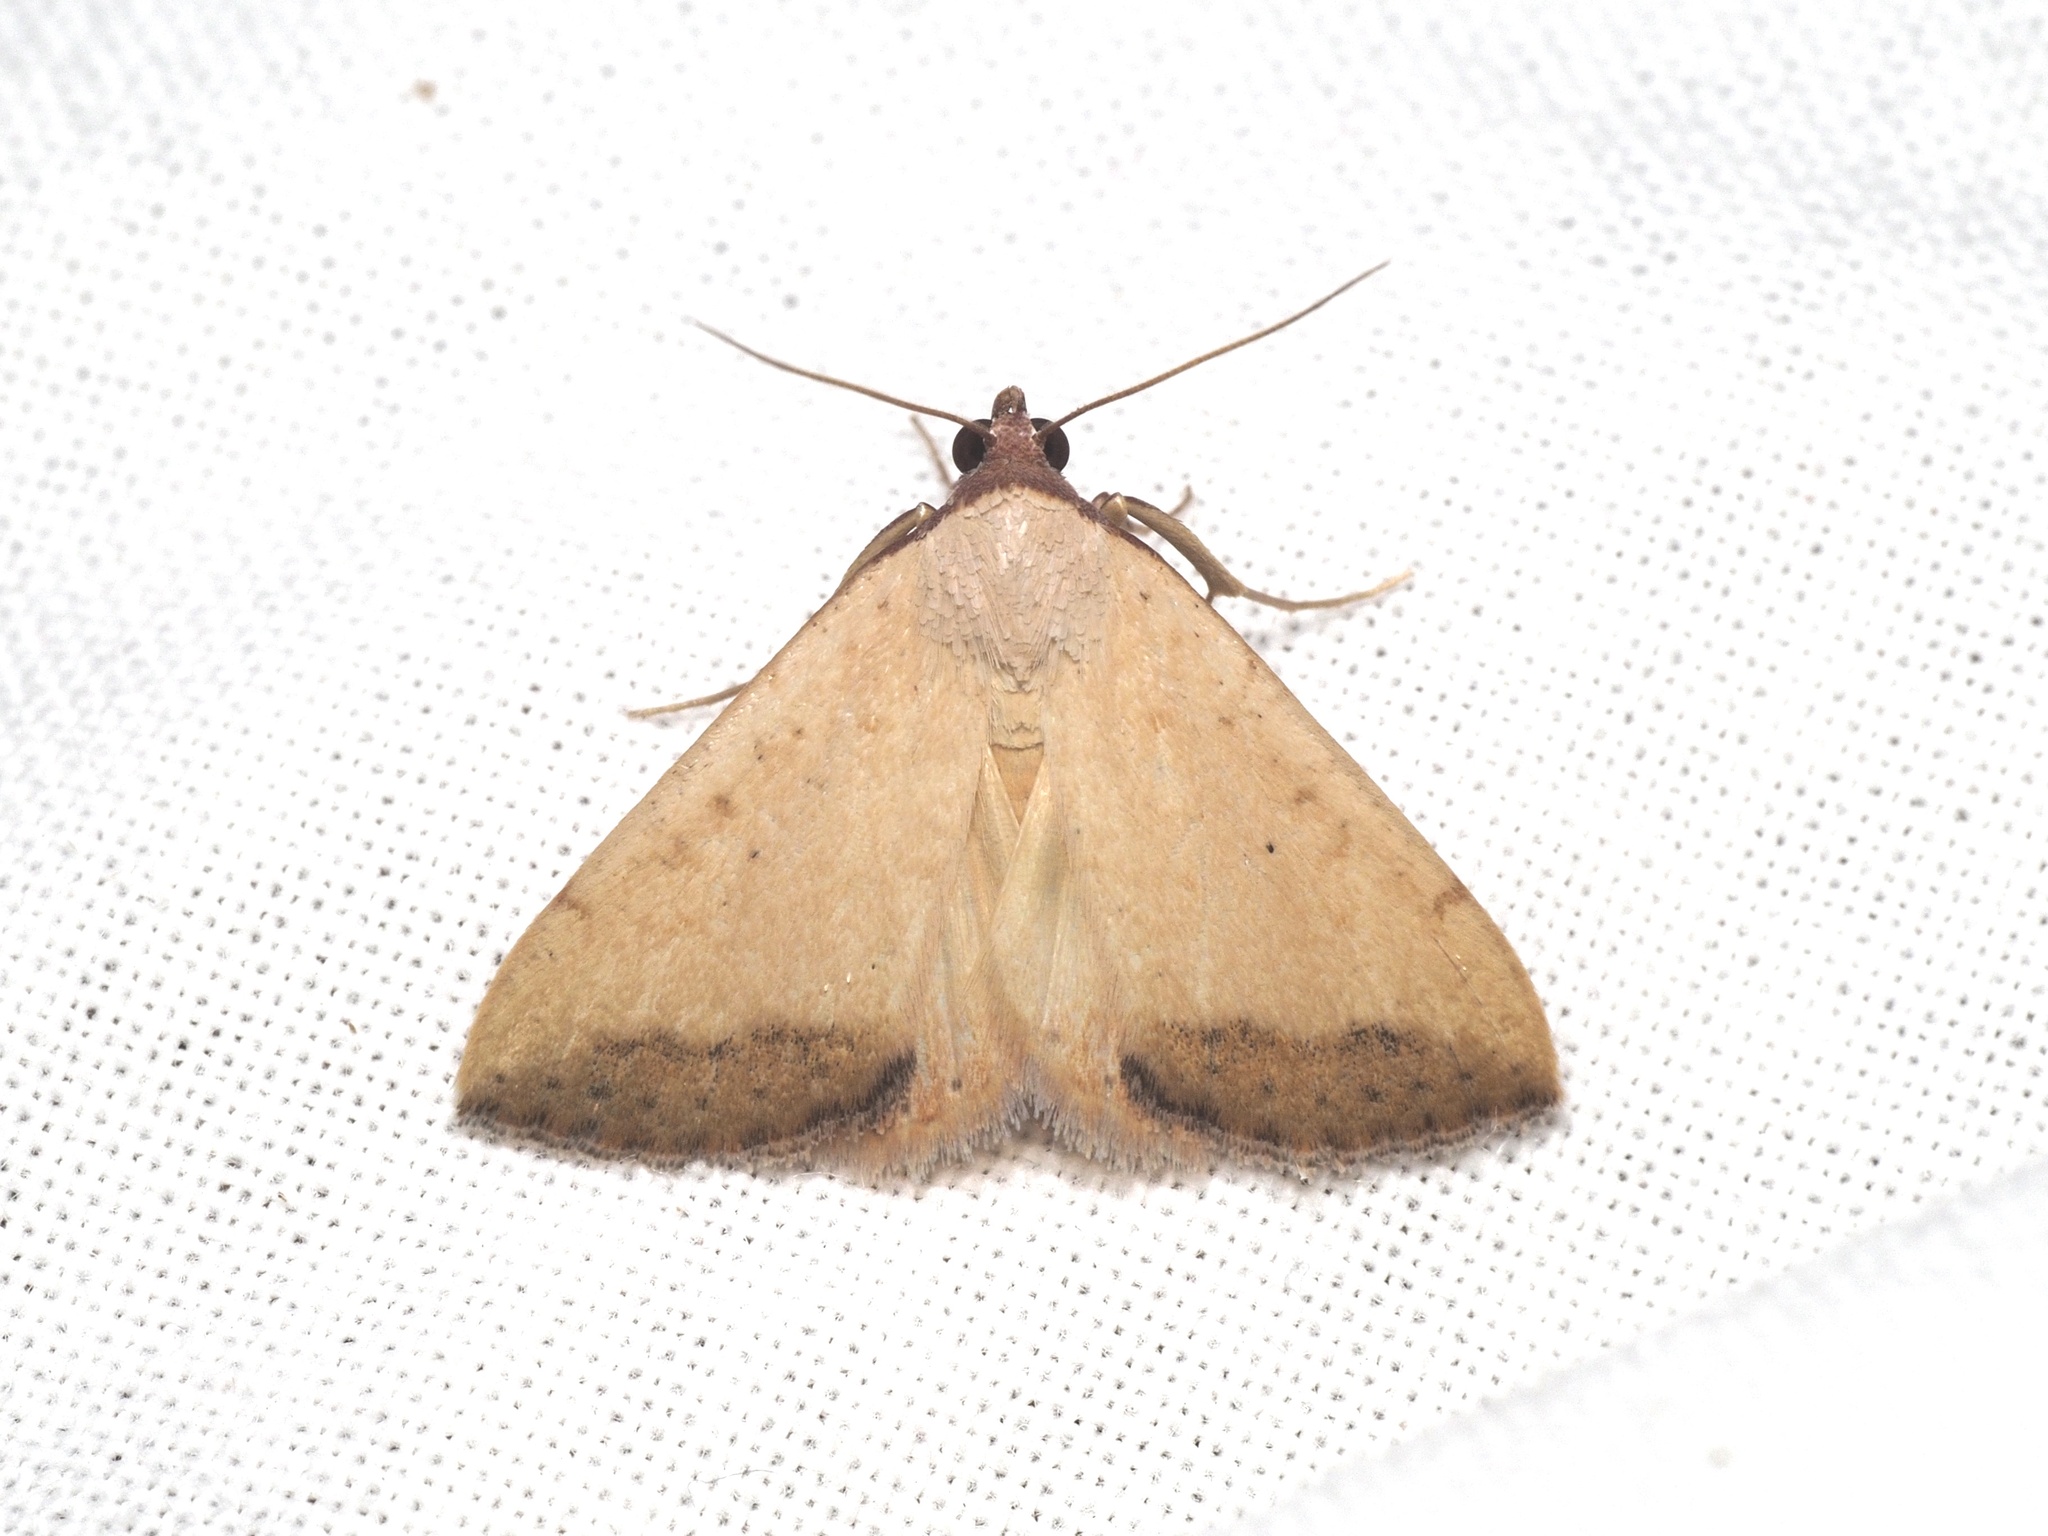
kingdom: Animalia
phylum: Arthropoda
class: Insecta
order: Lepidoptera
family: Erebidae
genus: Phytometra
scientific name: Phytometra subflavalis
